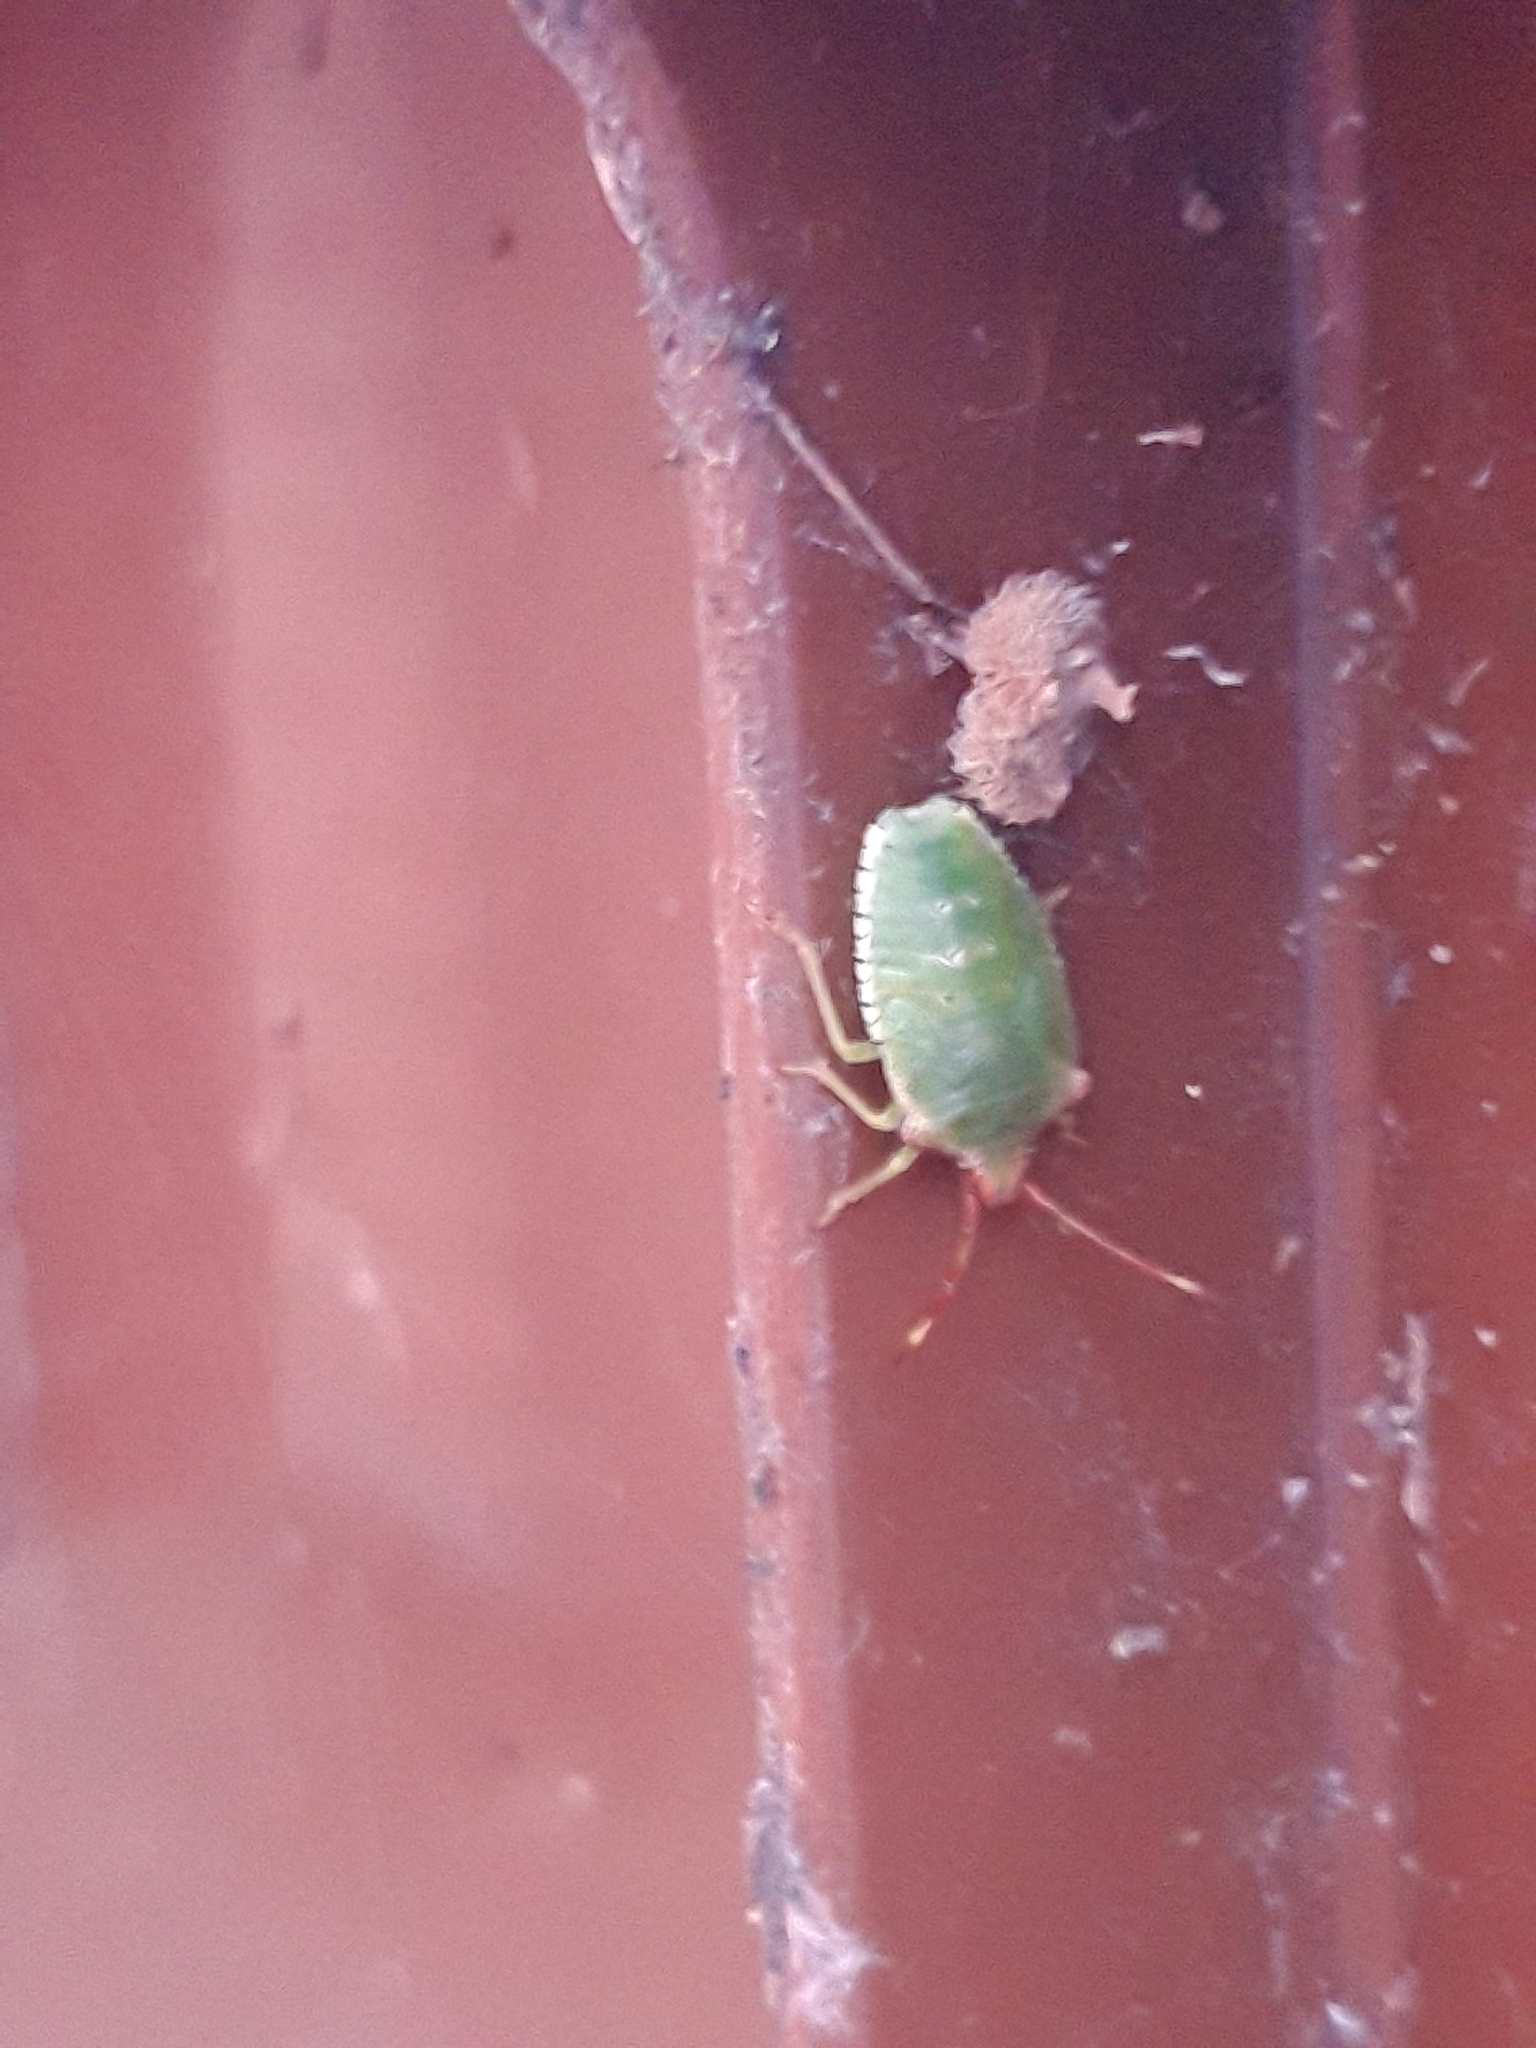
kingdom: Animalia
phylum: Arthropoda
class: Insecta
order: Hemiptera
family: Acanthosomatidae
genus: Acanthosoma
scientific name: Acanthosoma haemorrhoidale
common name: Hawthorn shieldbug
